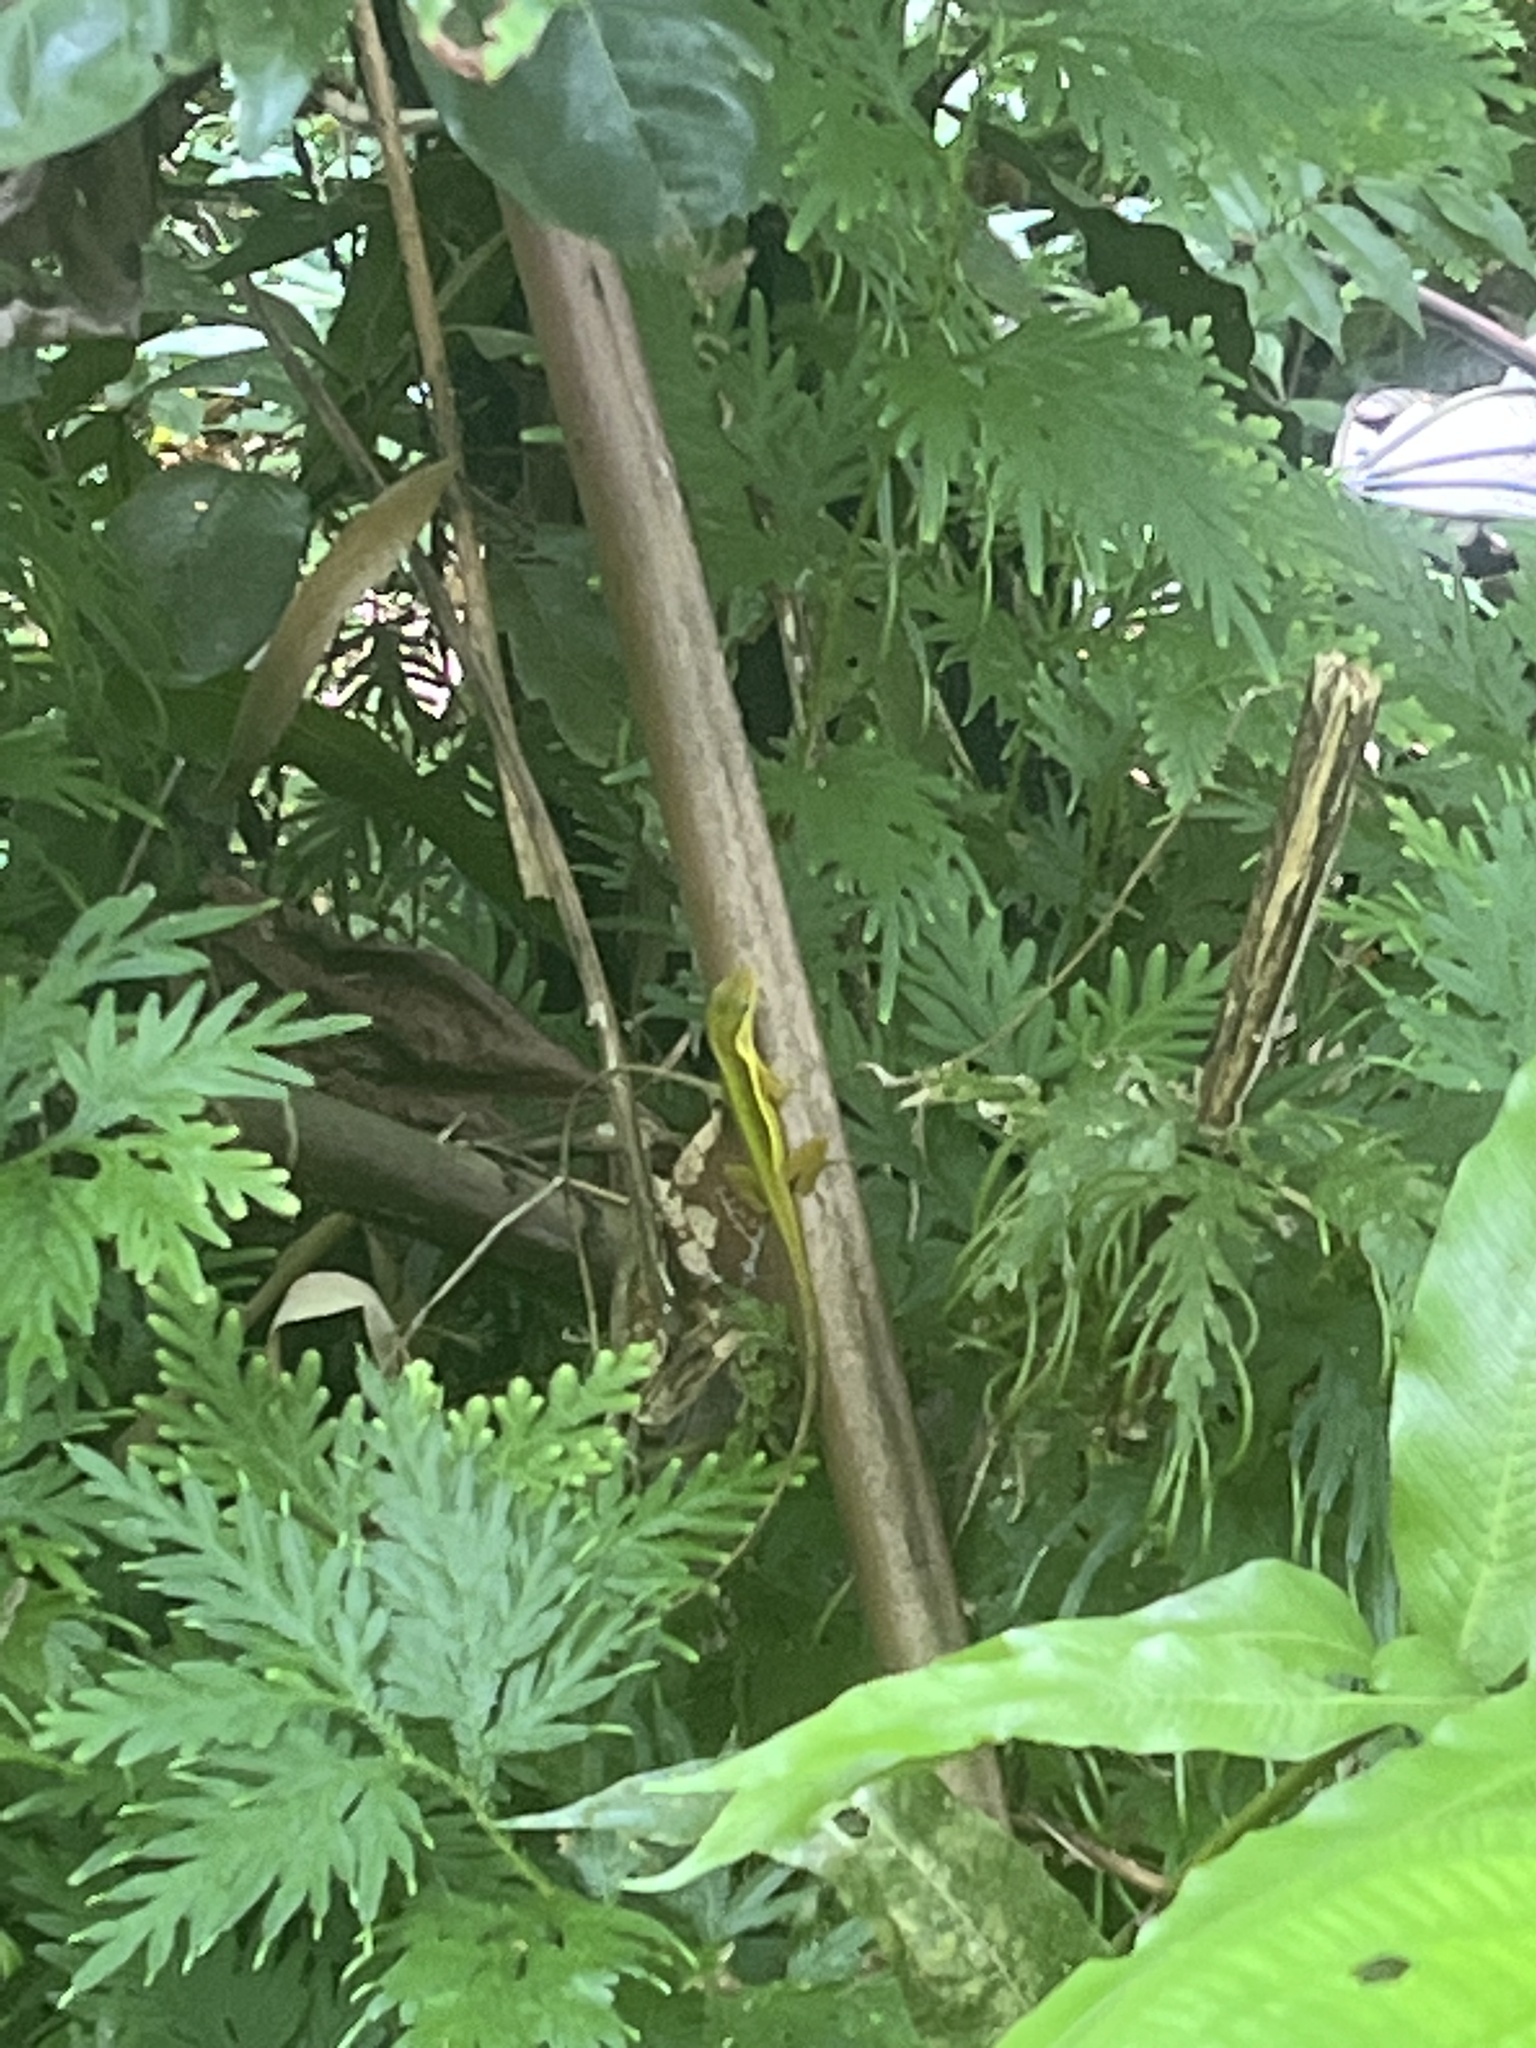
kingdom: Animalia
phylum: Chordata
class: Squamata
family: Dactyloidae
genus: Anolis
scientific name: Anolis krugi
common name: Krug's anole
